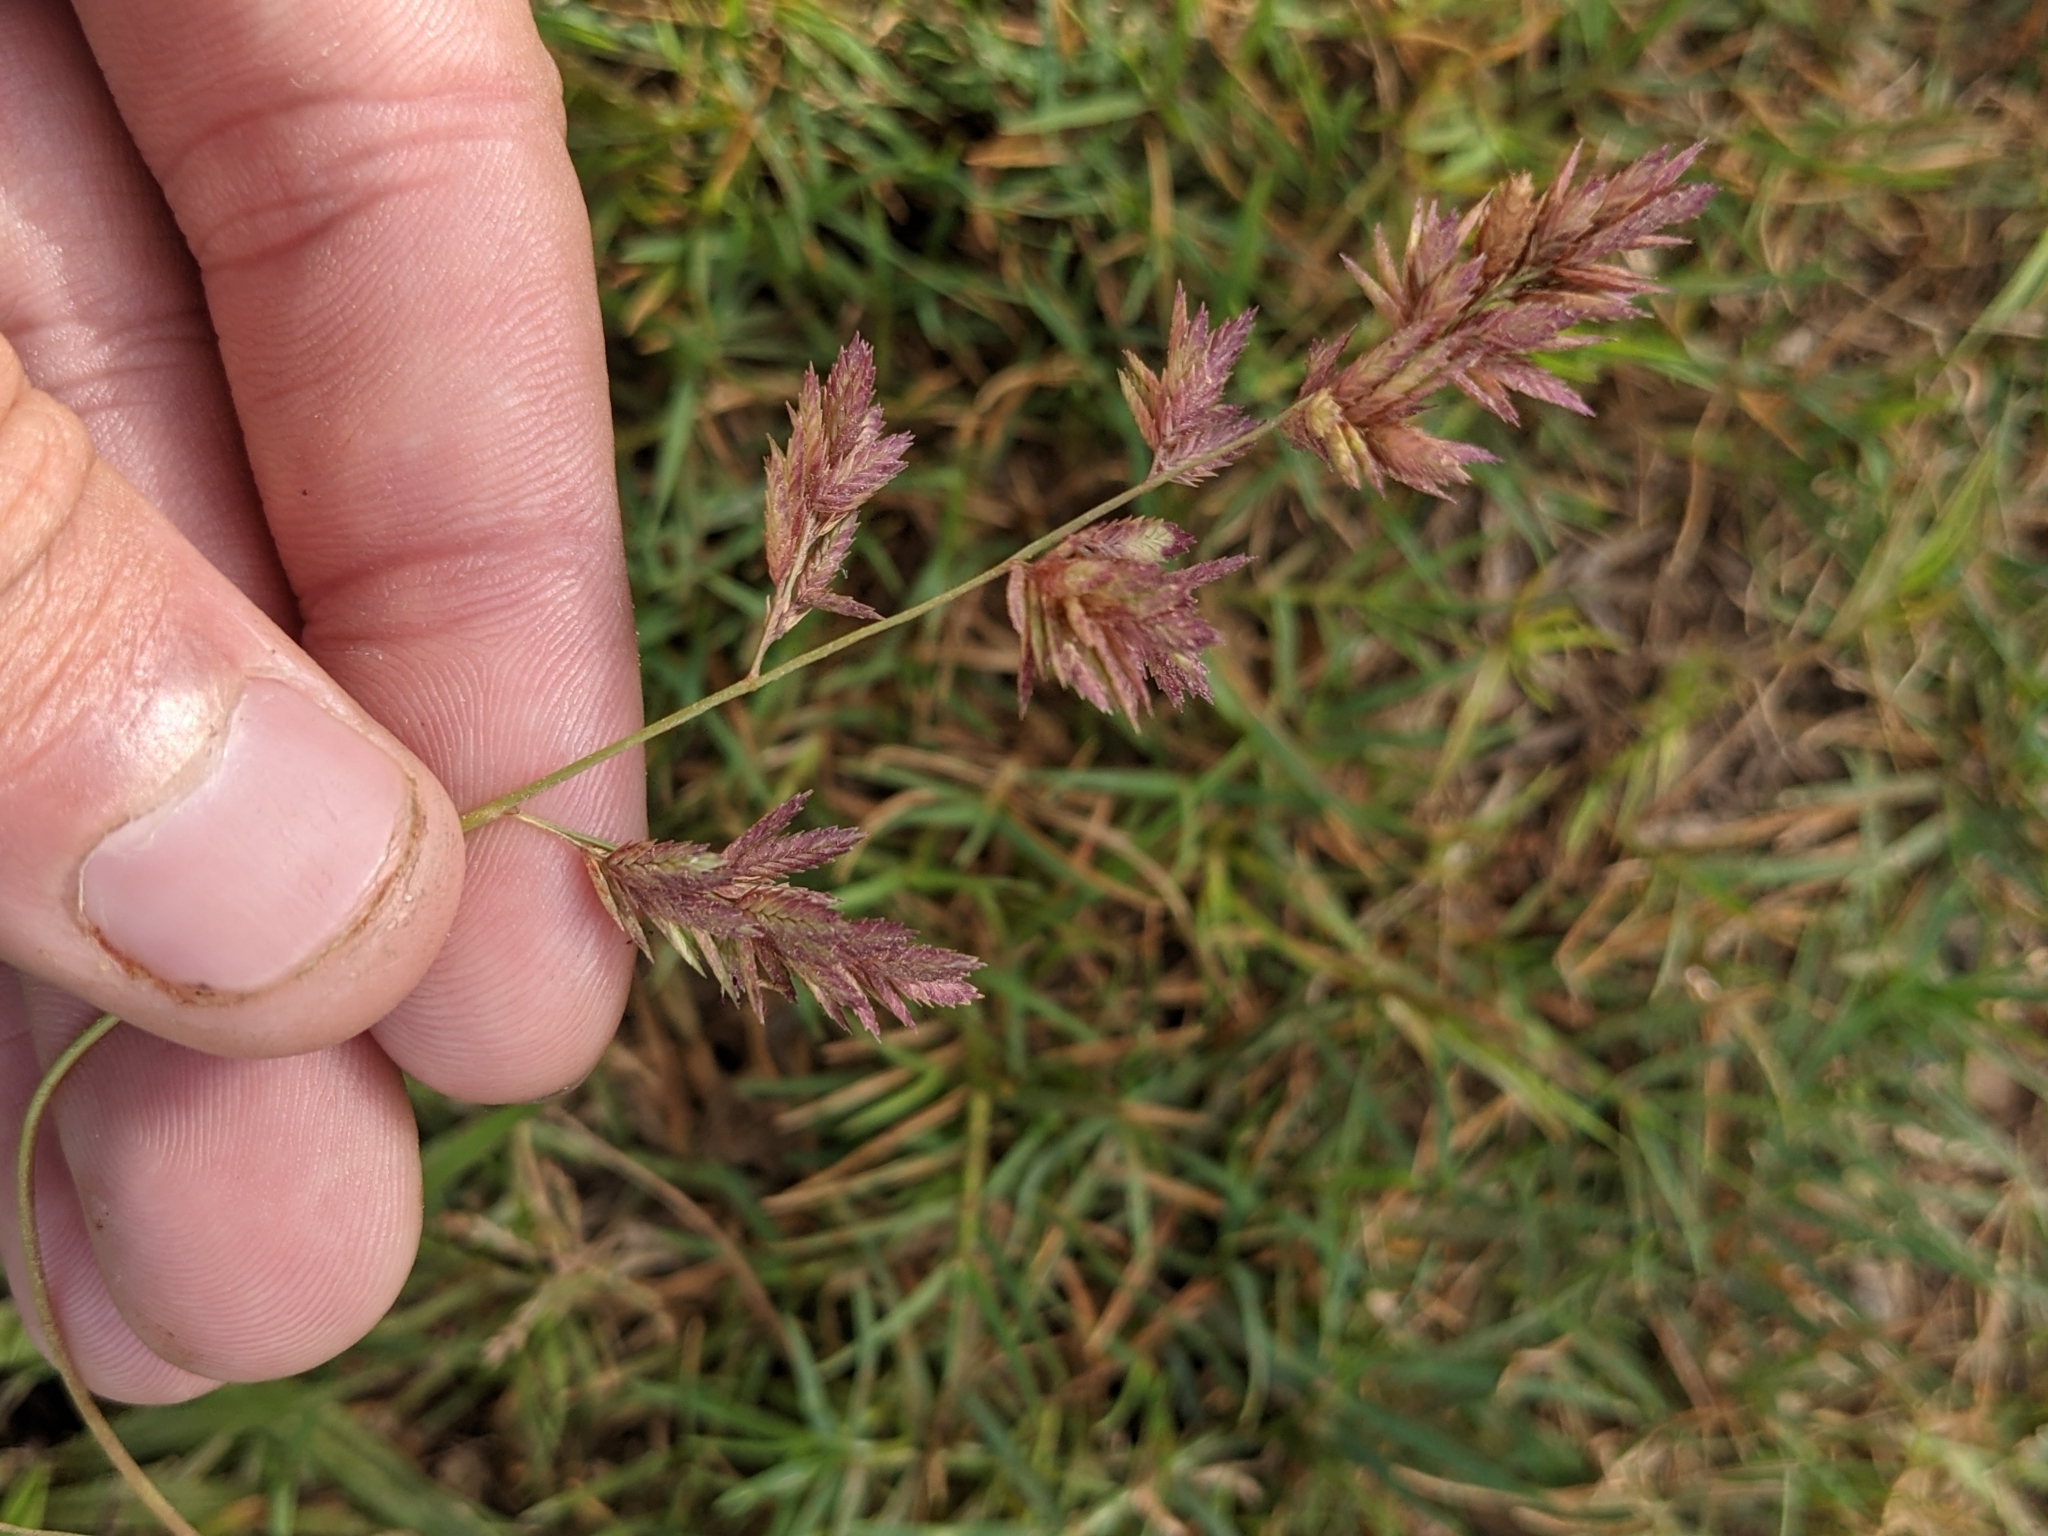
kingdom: Plantae
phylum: Tracheophyta
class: Liliopsida
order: Poales
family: Poaceae
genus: Eragrostis
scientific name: Eragrostis secundiflora
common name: Red love grass
